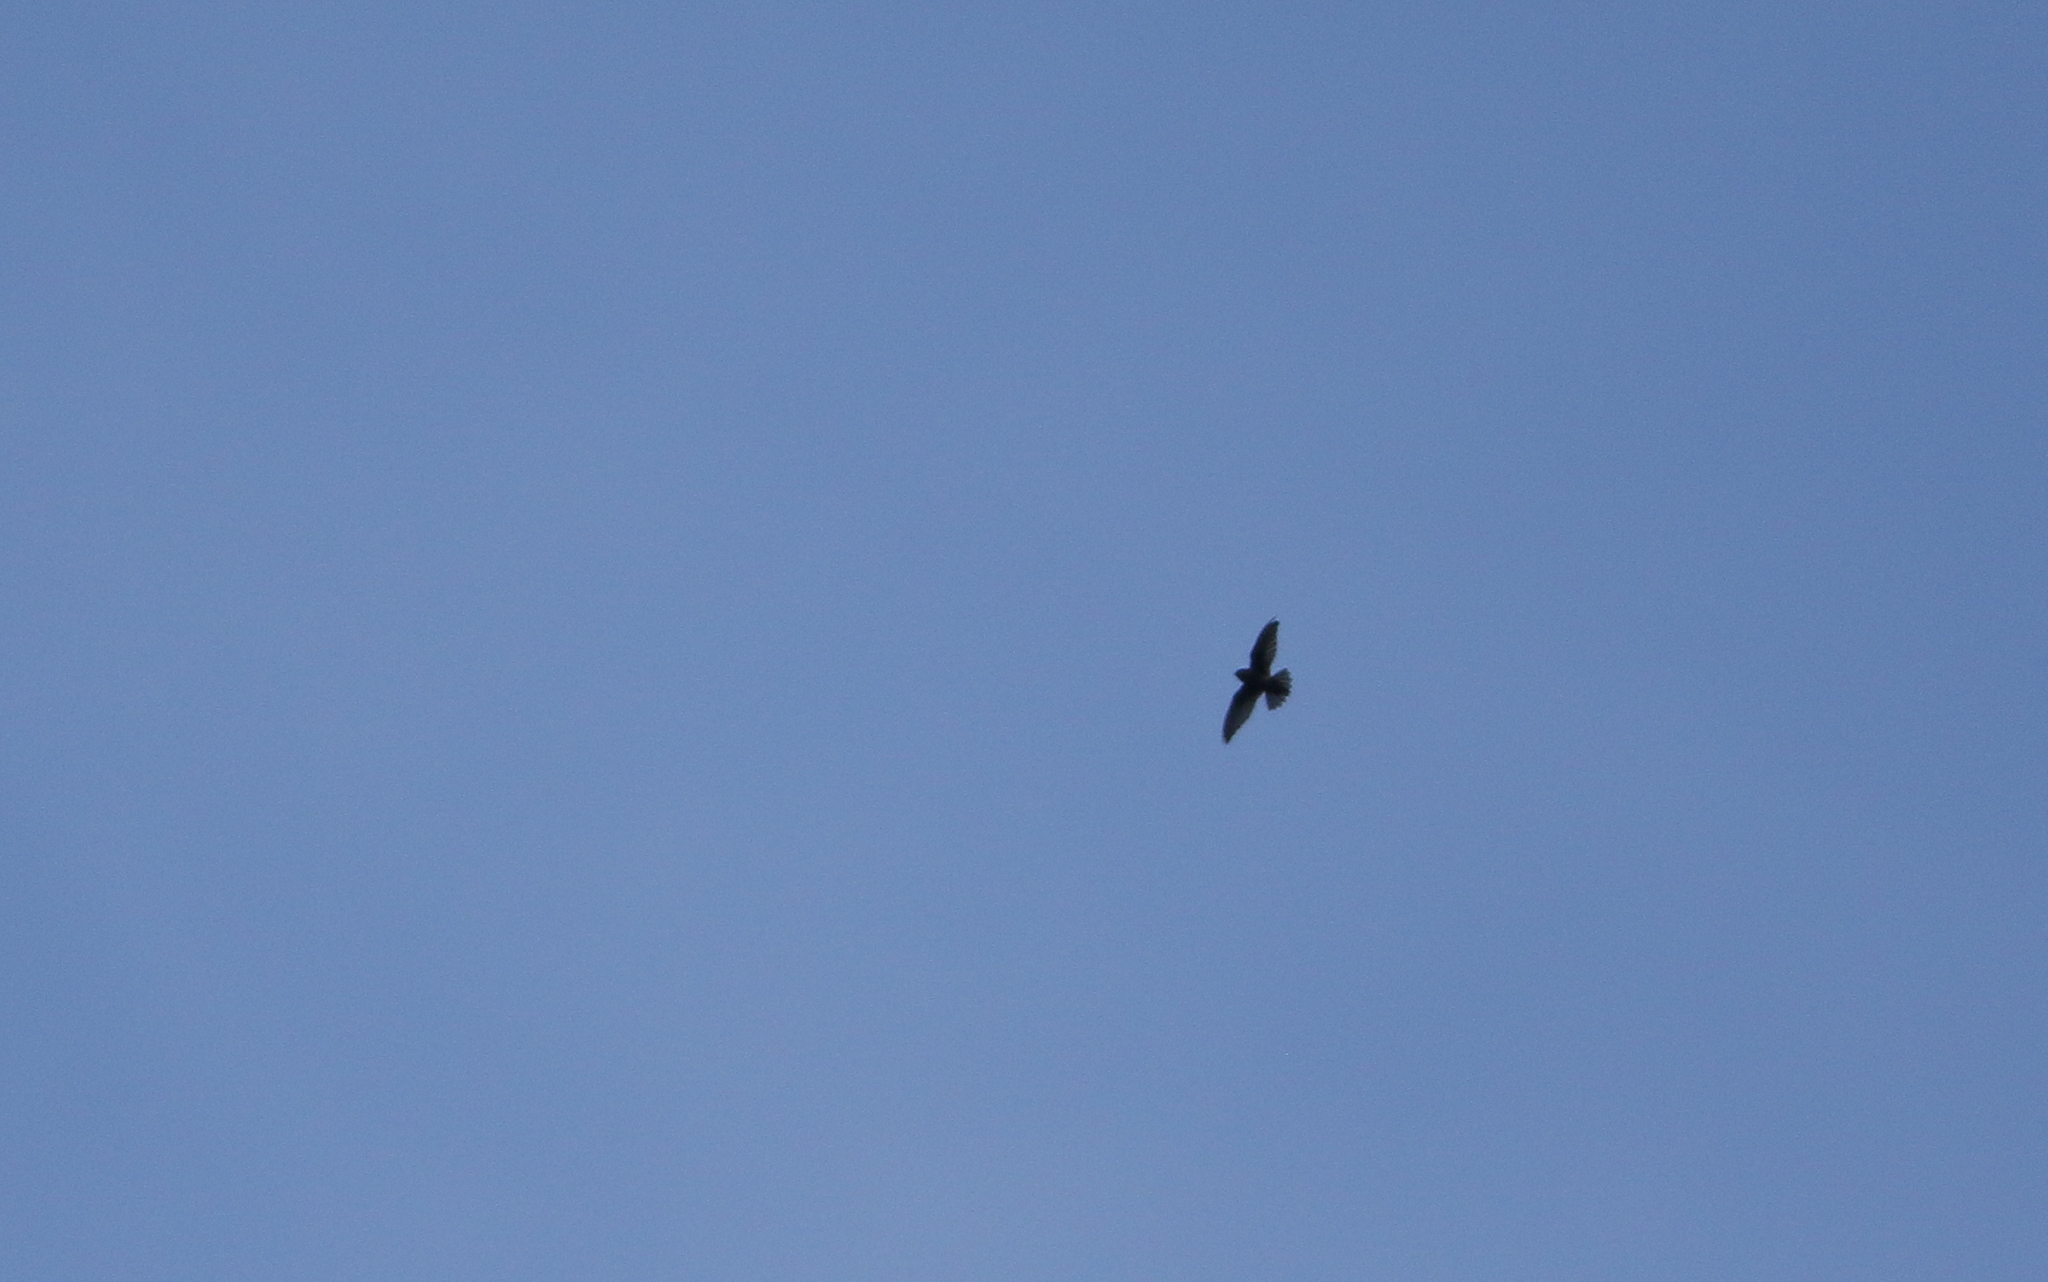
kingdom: Animalia
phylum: Chordata
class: Aves
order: Apodiformes
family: Apodidae
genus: Chaetura
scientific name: Chaetura cinereiventris
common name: Gray-rumped swift
